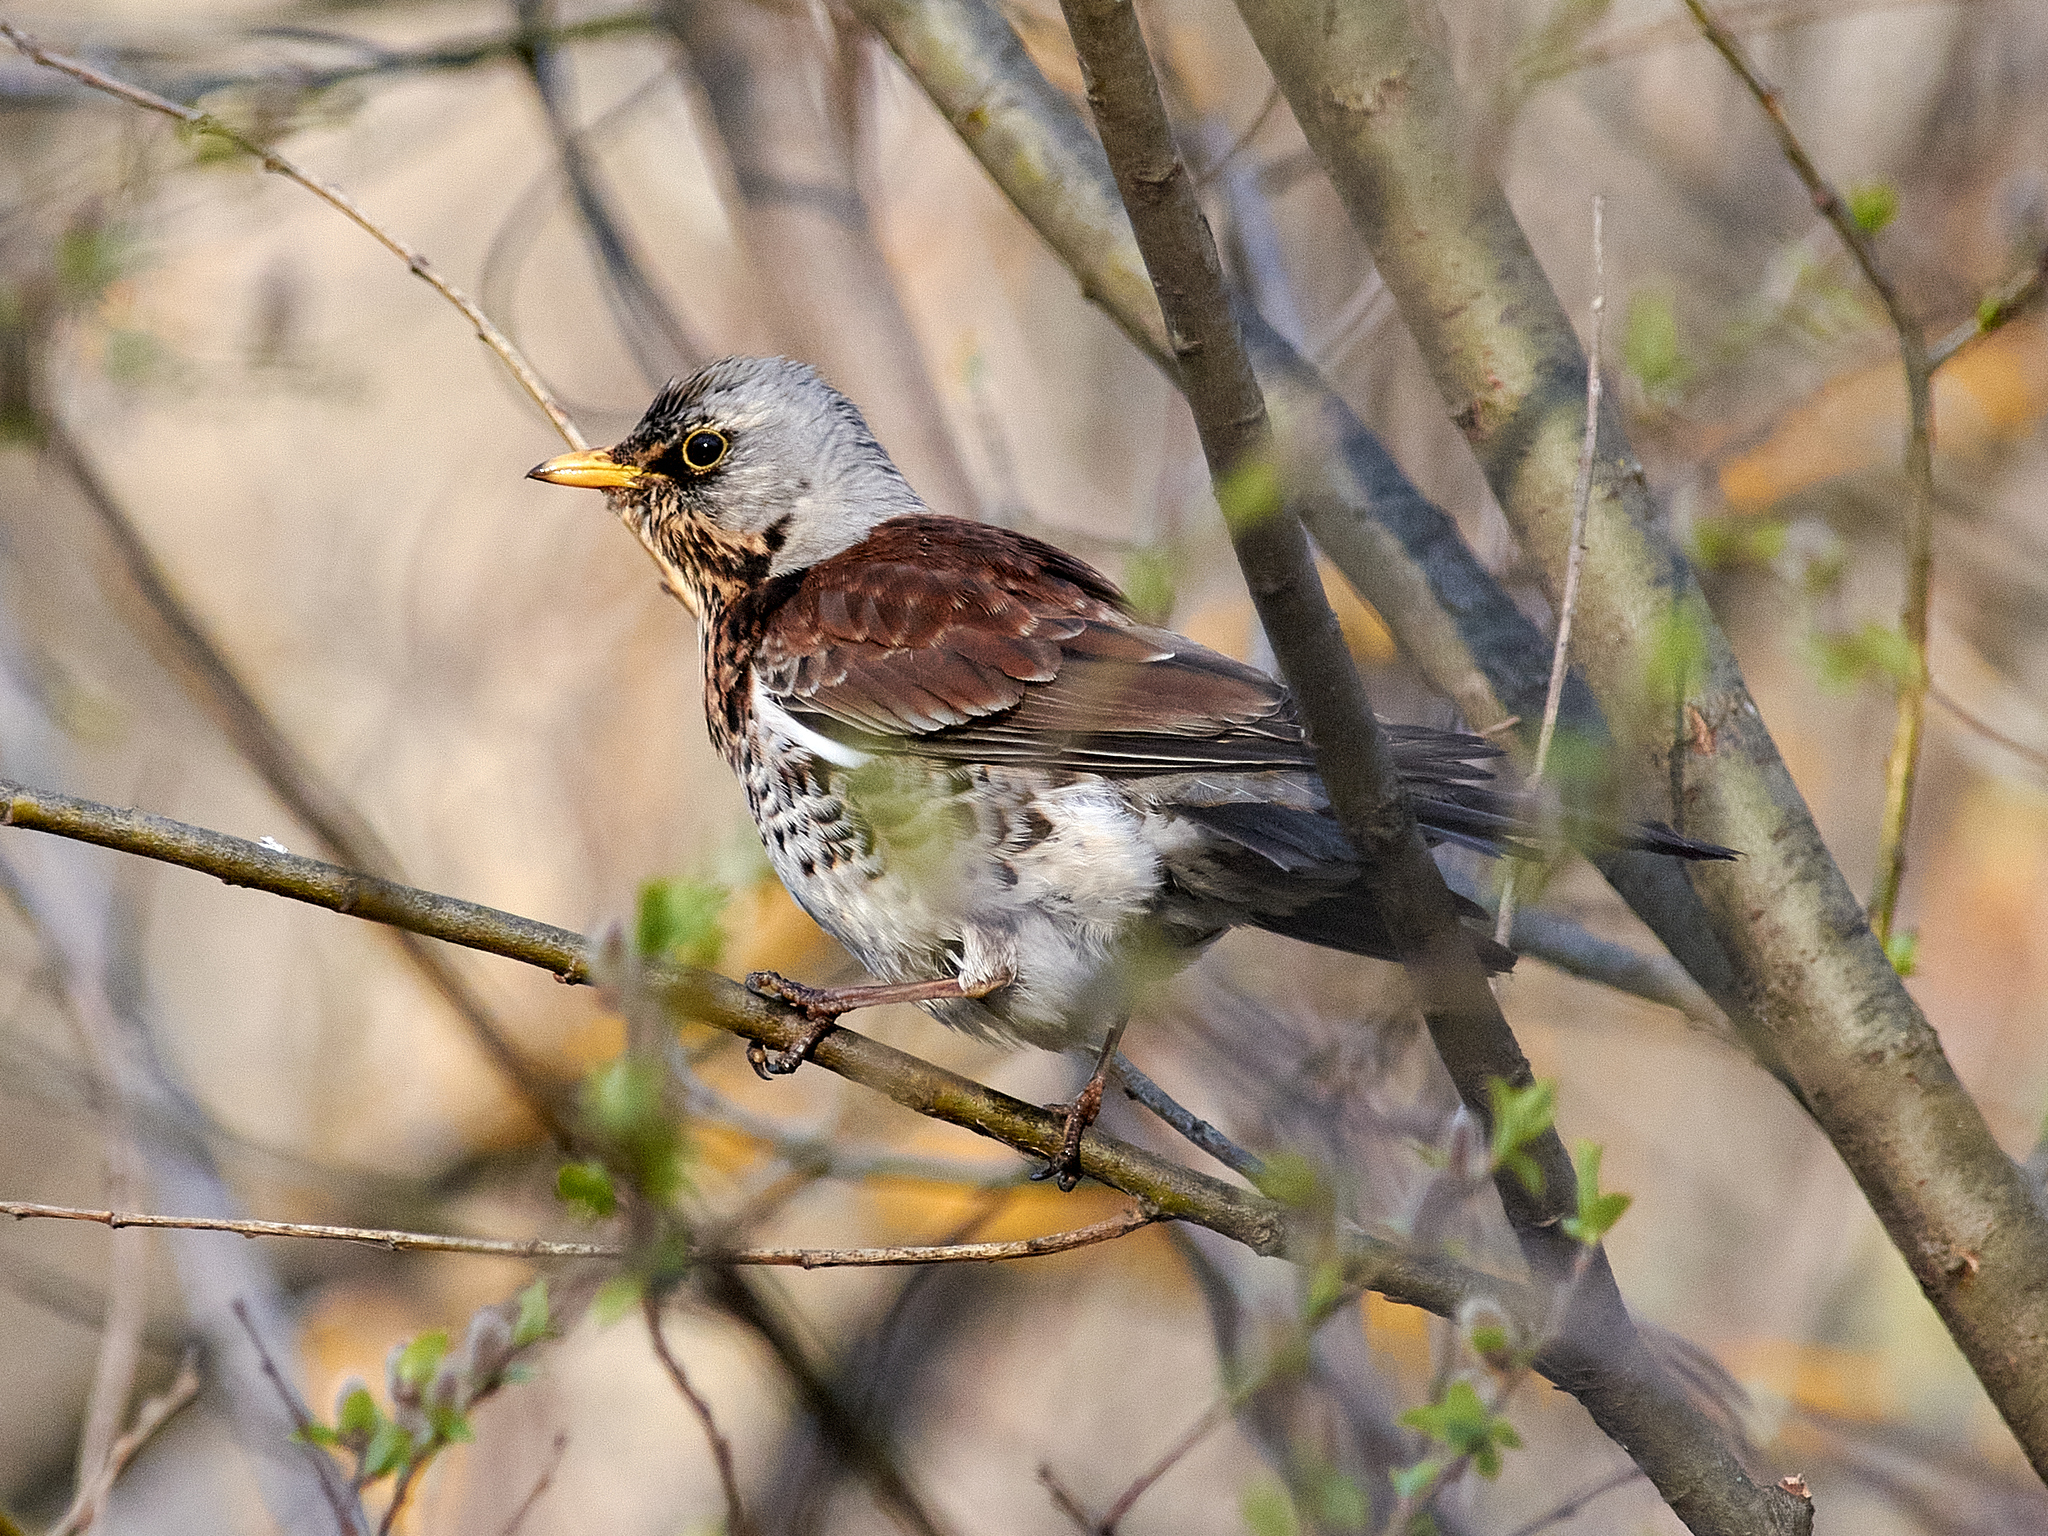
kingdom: Animalia
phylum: Chordata
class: Aves
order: Passeriformes
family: Turdidae
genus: Turdus
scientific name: Turdus pilaris
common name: Fieldfare
